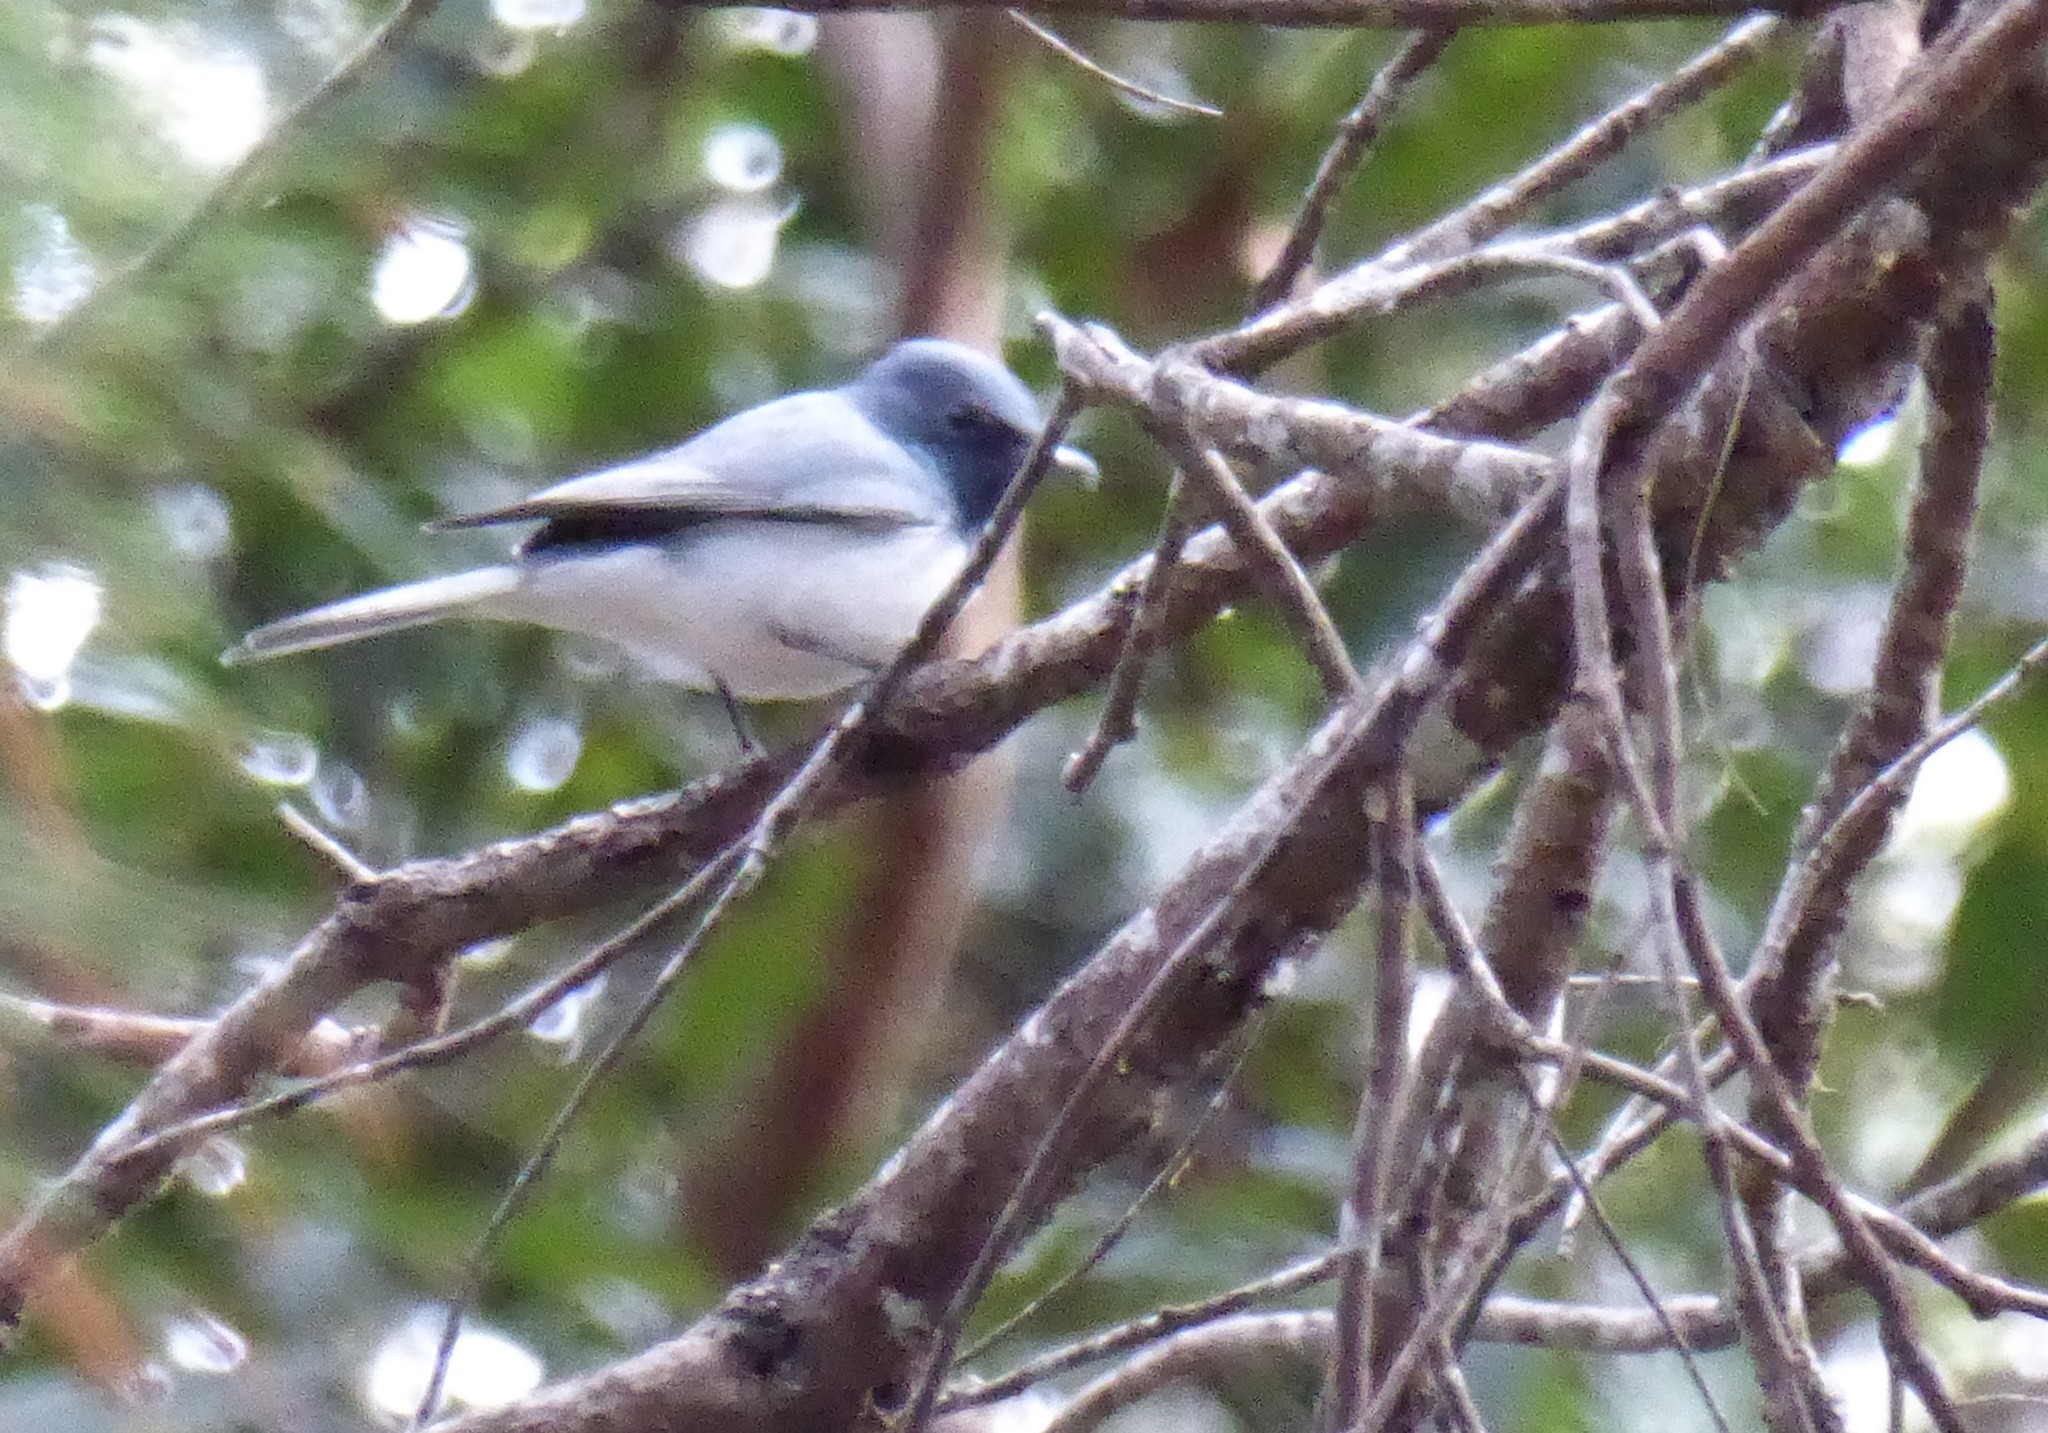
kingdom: Animalia
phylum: Chordata
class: Aves
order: Passeriformes
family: Monarchidae
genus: Myiagra
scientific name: Myiagra rubecula
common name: Leaden flycatcher
